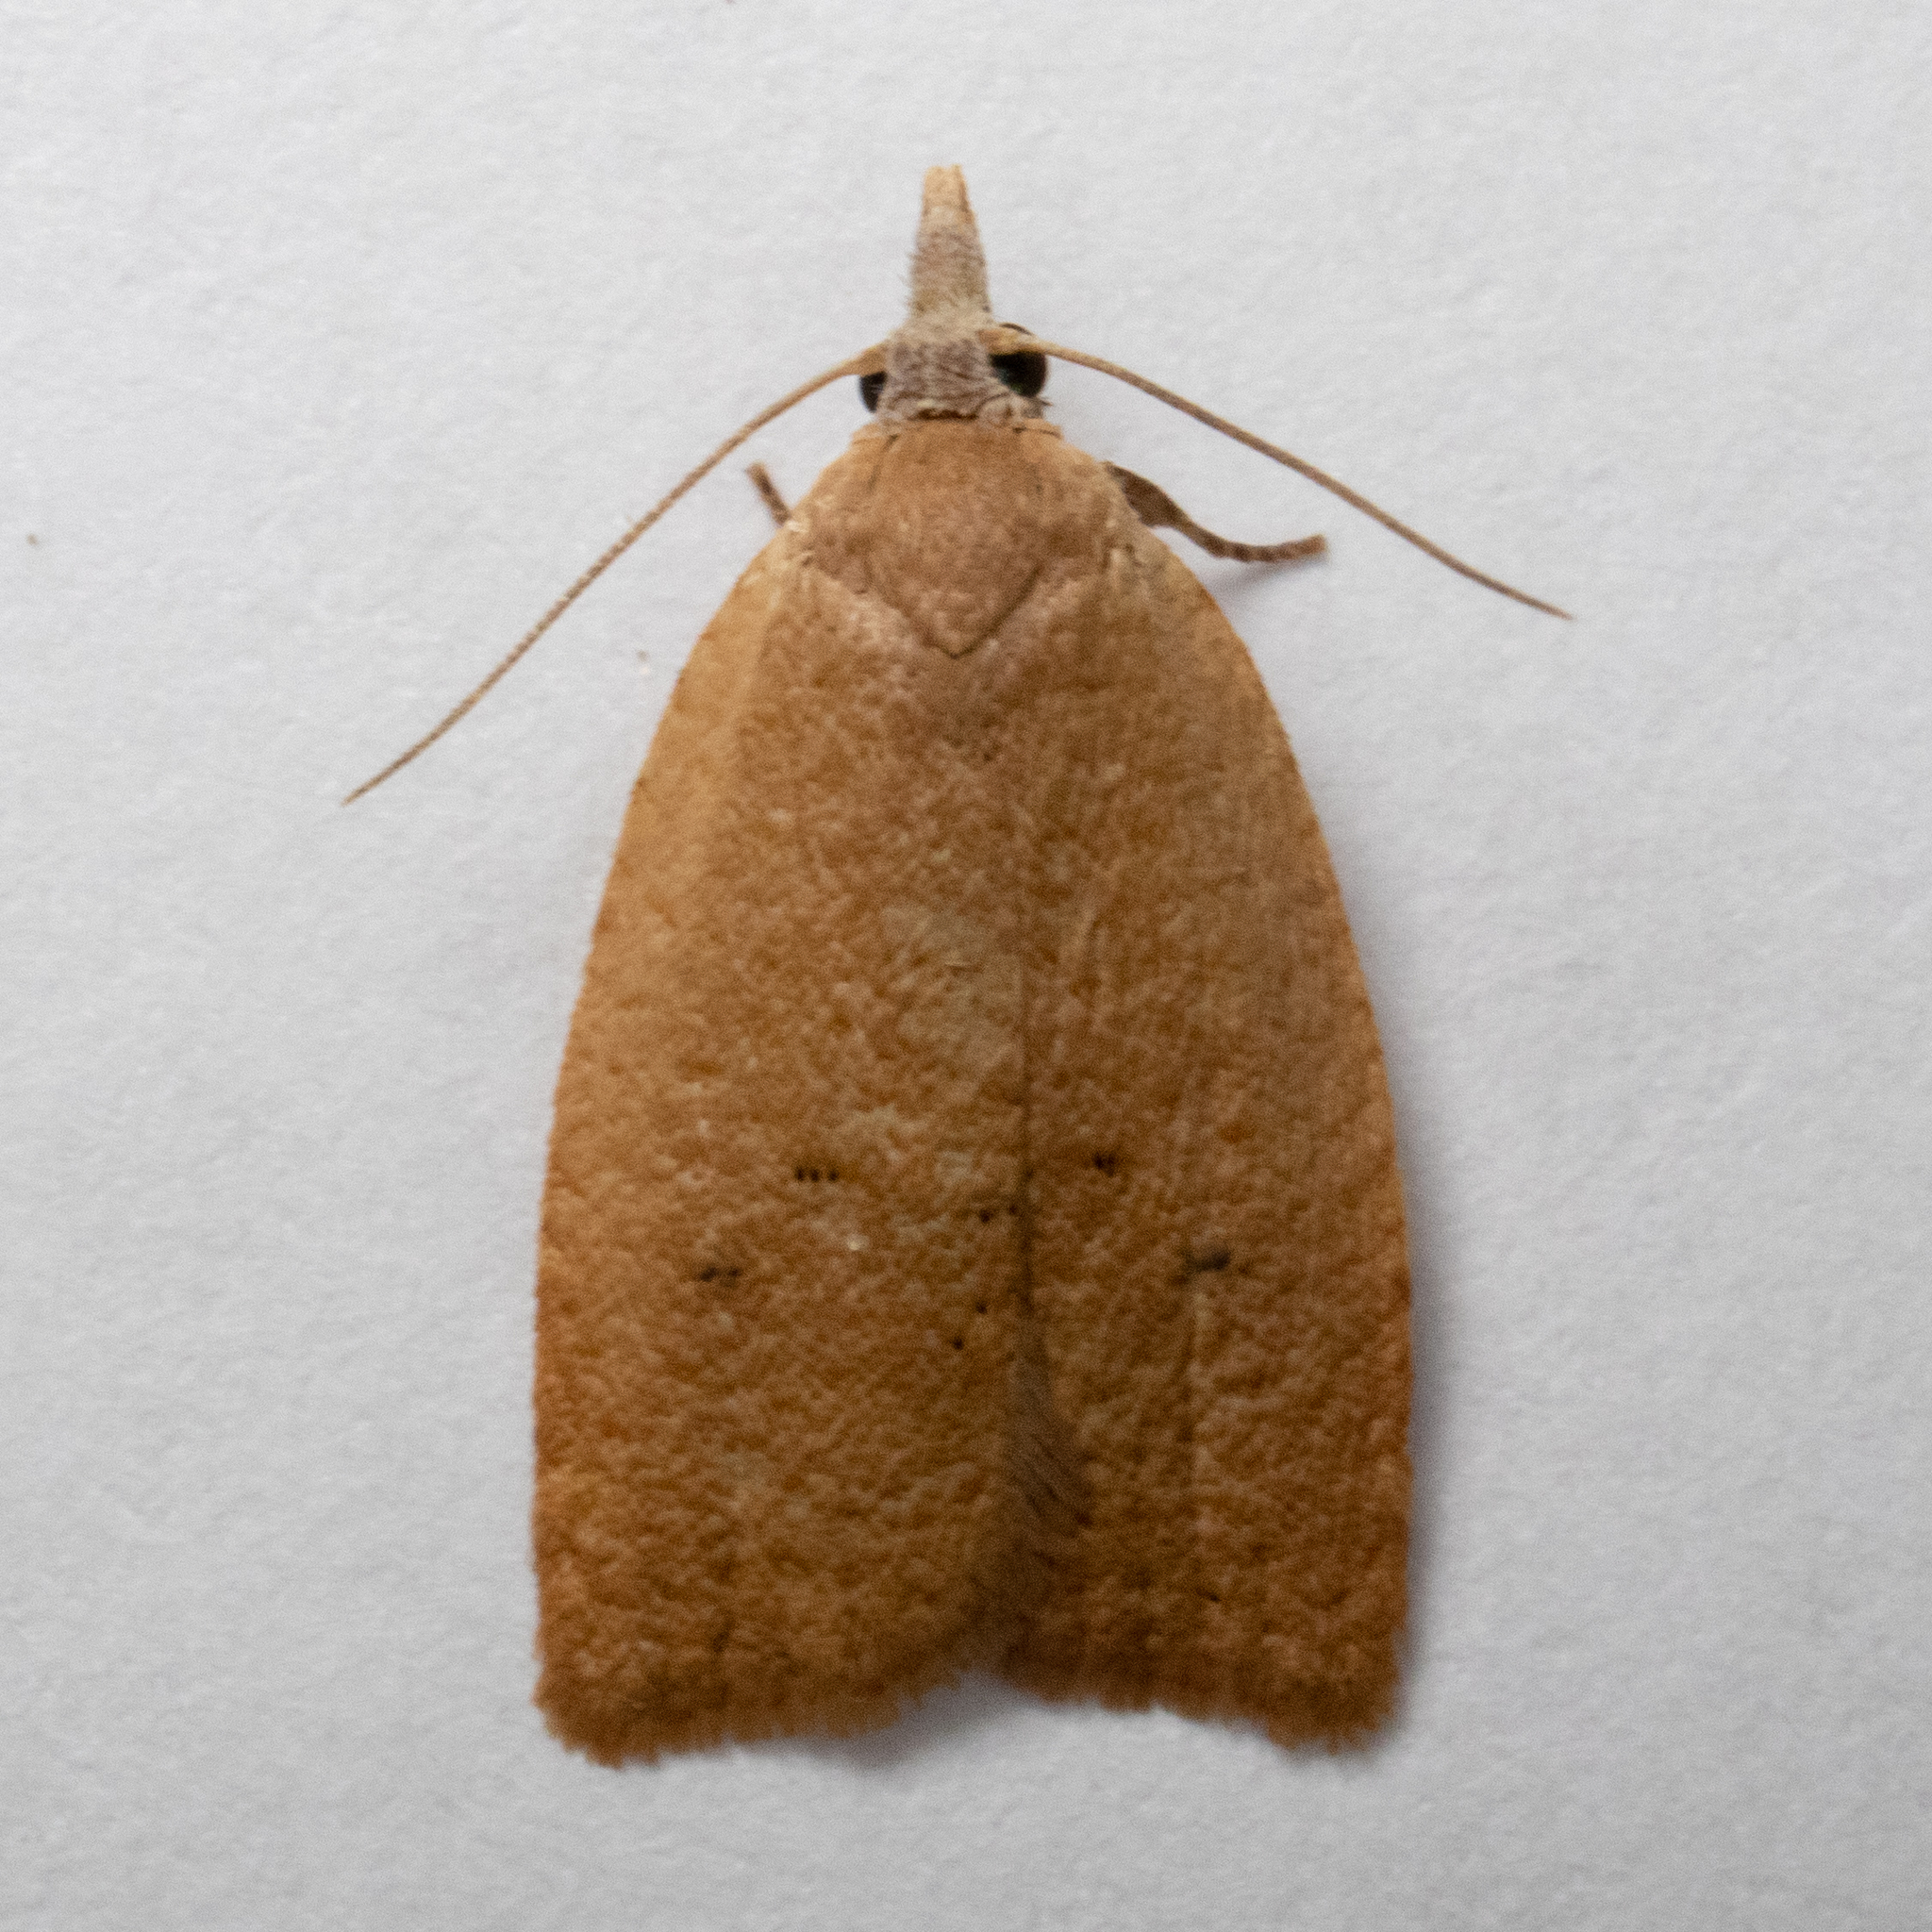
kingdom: Animalia
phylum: Arthropoda
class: Insecta
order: Lepidoptera
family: Tortricidae
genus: Sparganothoides
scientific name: Sparganothoides lentiginosana
